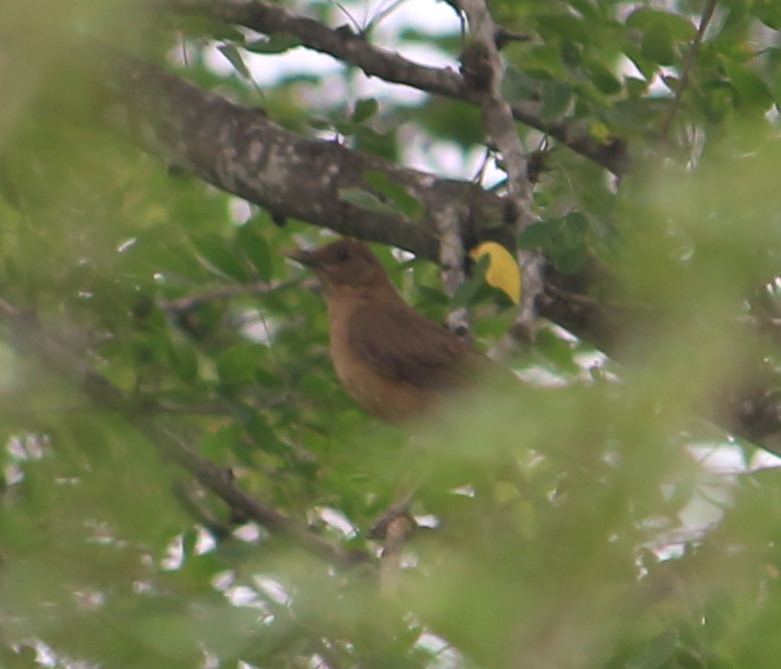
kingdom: Animalia
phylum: Chordata
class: Aves
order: Passeriformes
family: Turdidae
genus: Turdus
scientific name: Turdus grayi
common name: Clay-colored thrush
